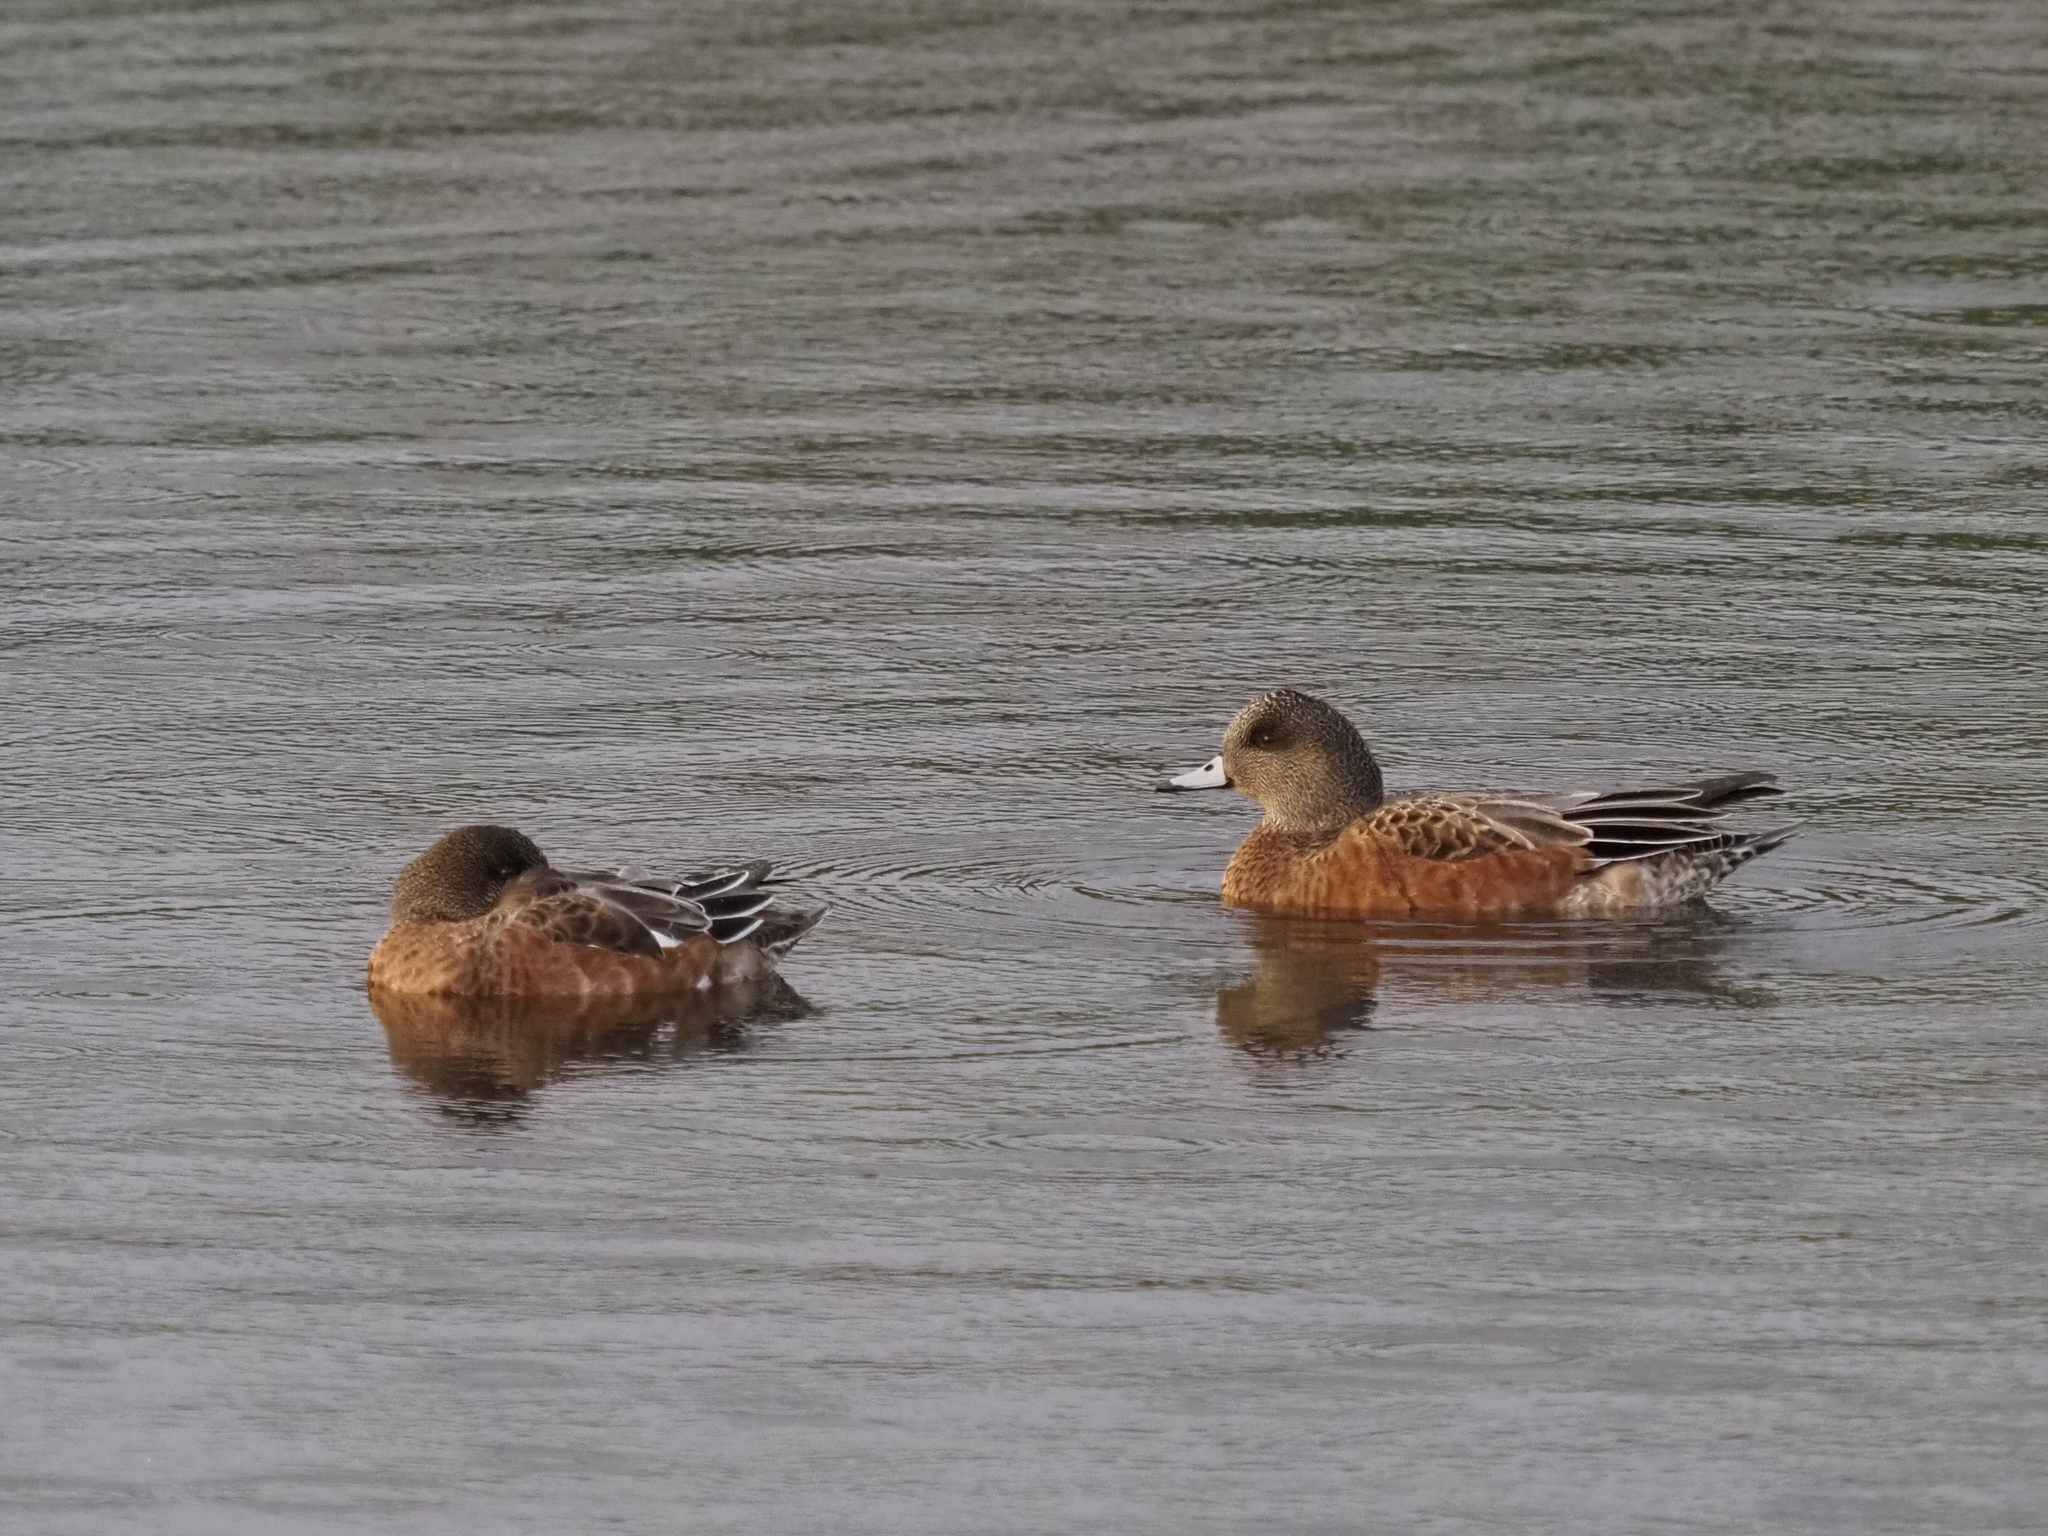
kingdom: Animalia
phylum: Chordata
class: Aves
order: Anseriformes
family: Anatidae
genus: Mareca
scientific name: Mareca americana
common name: American wigeon
